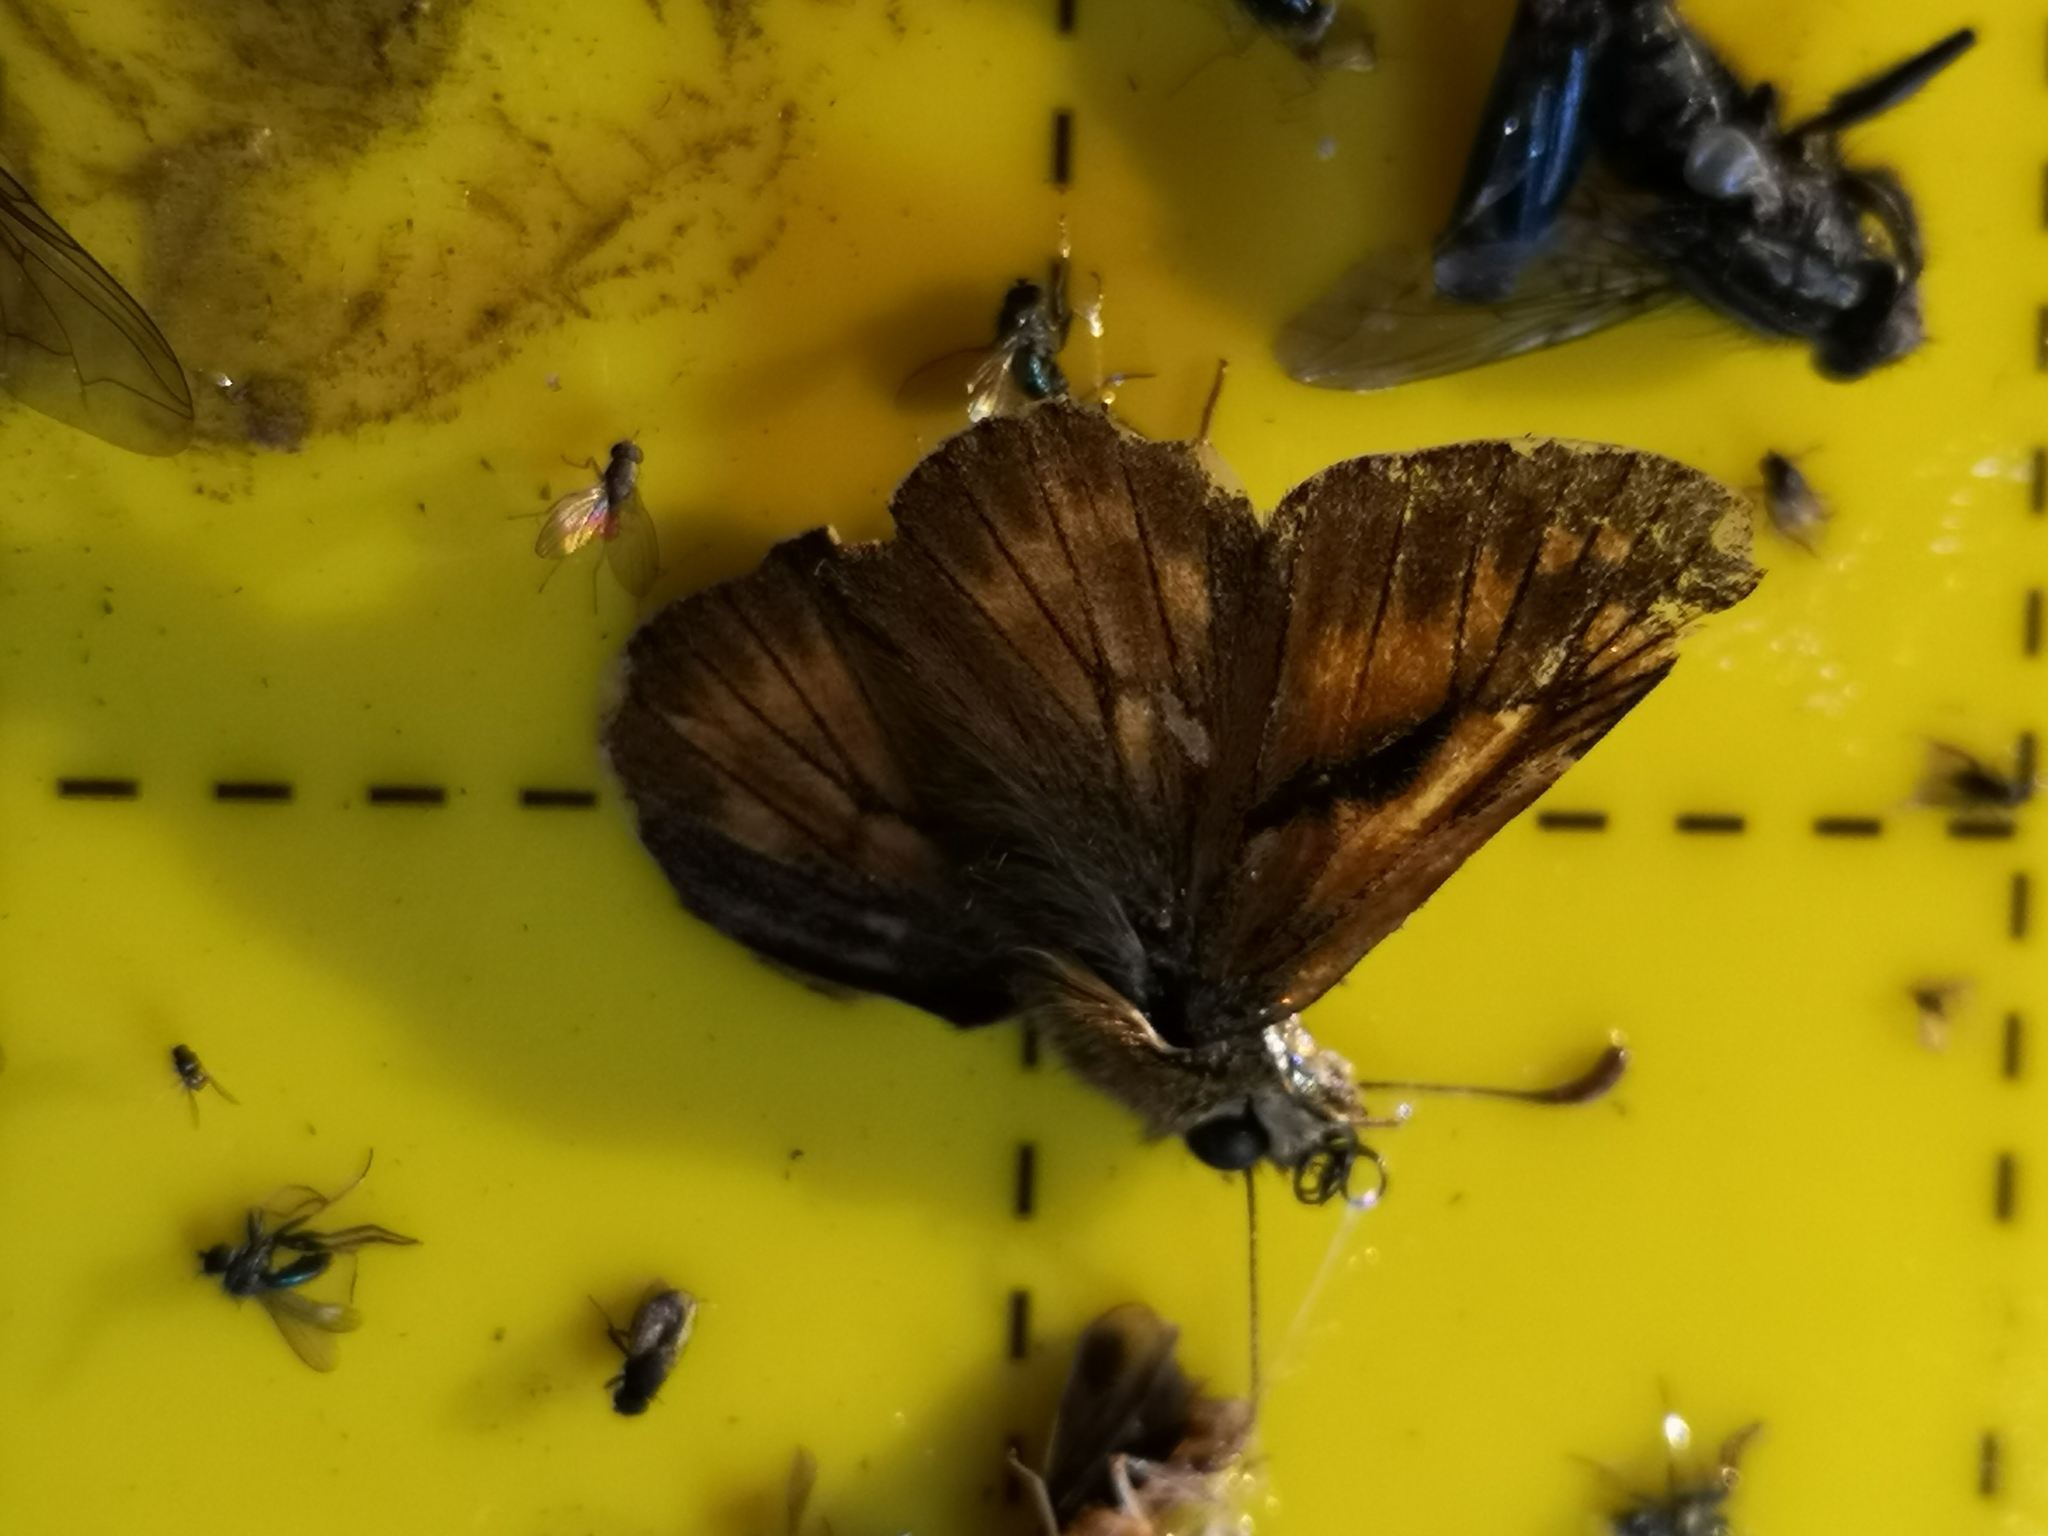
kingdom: Animalia
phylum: Arthropoda
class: Insecta
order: Lepidoptera
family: Hesperiidae
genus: Ochlodes
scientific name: Ochlodes venata
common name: Large skipper
